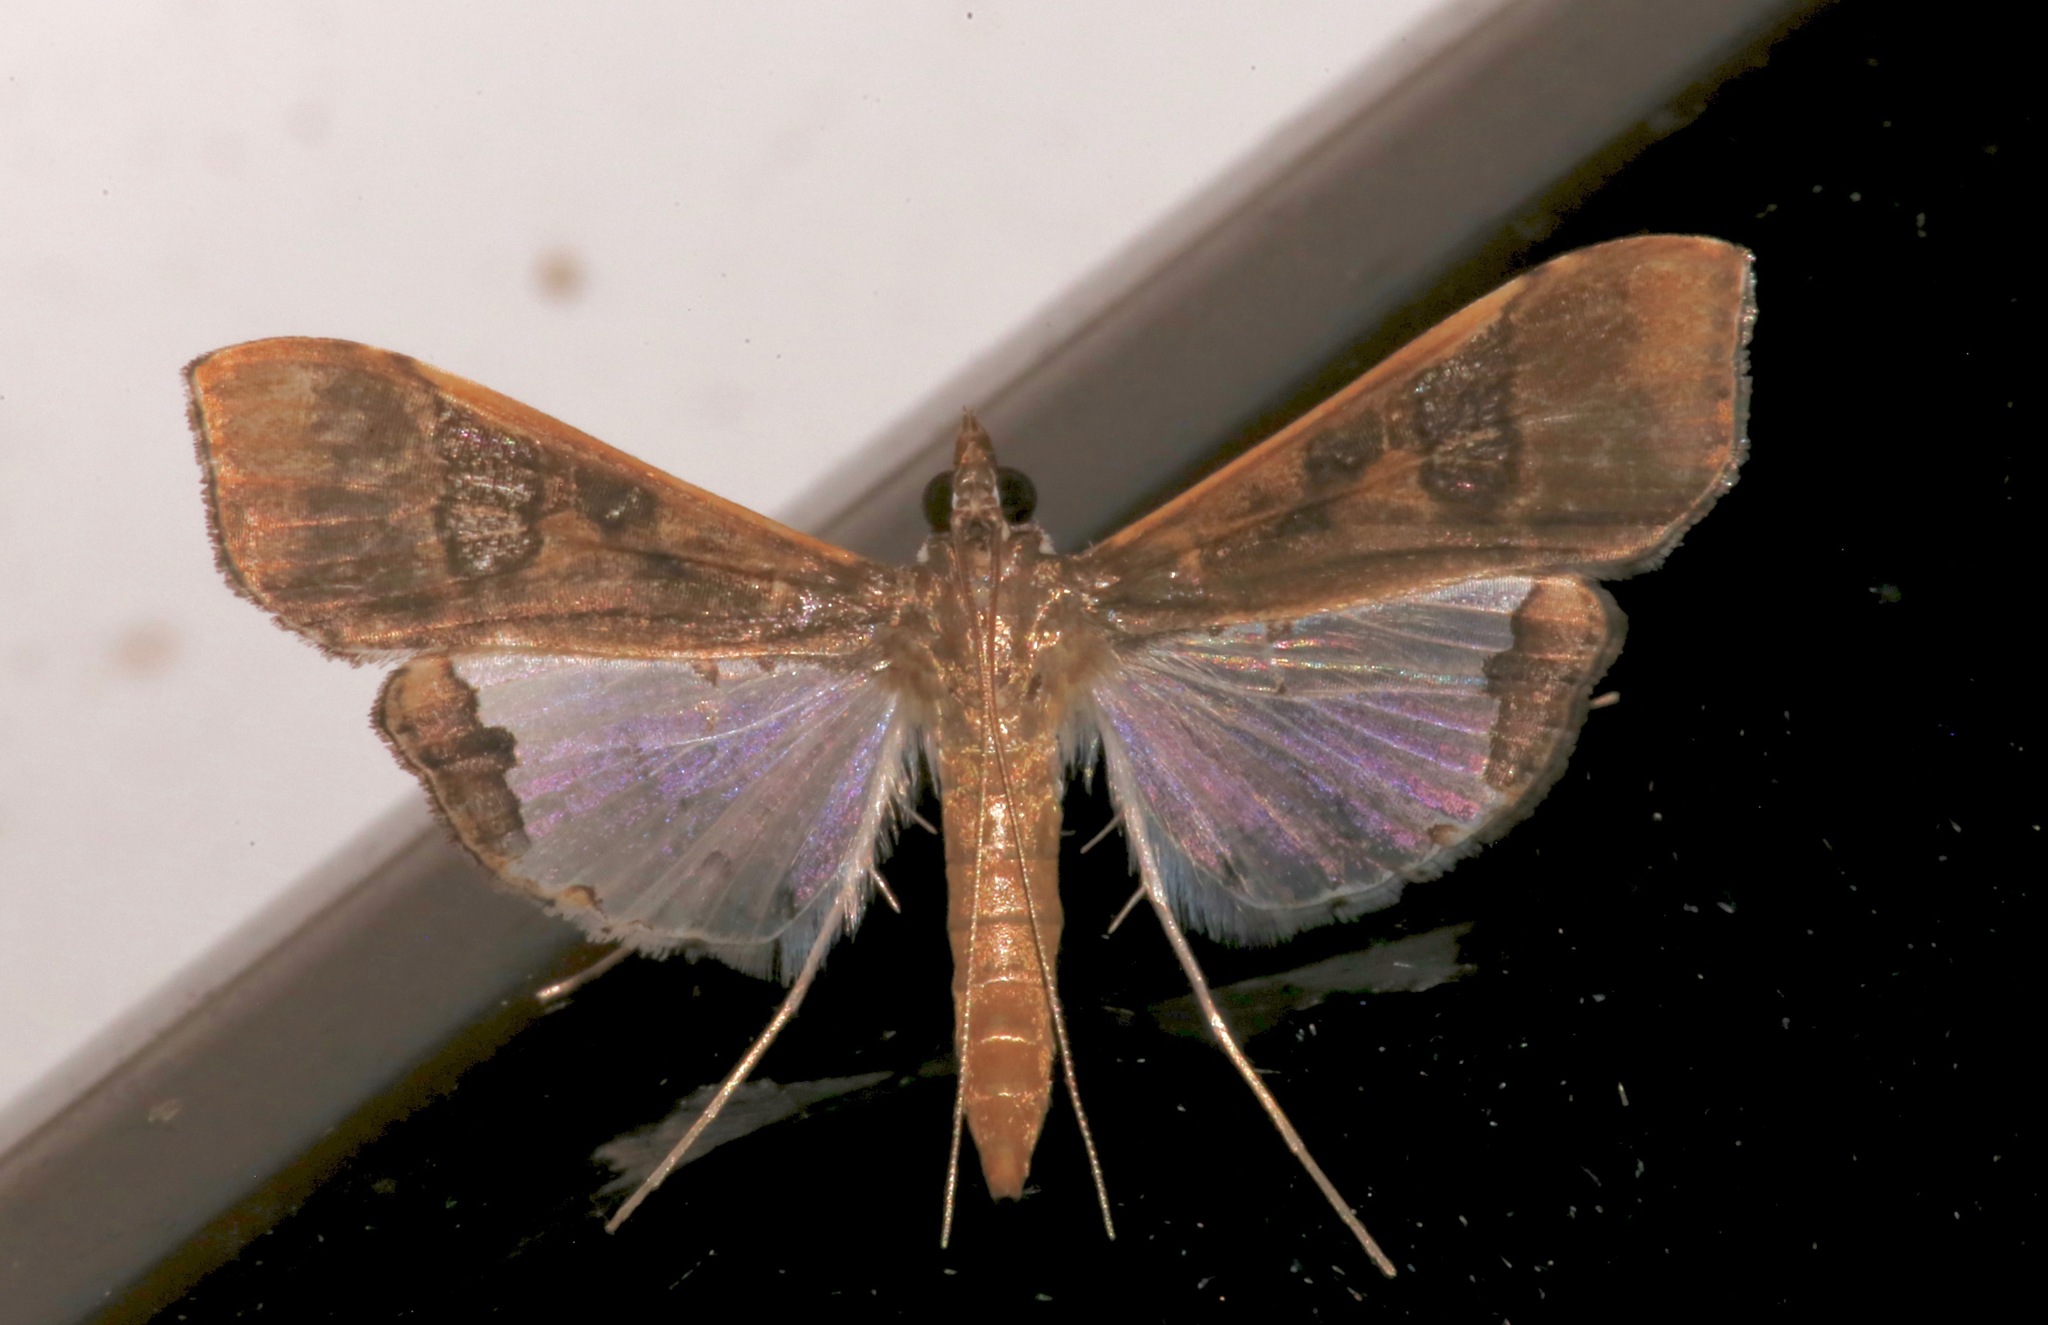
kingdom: Animalia
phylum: Arthropoda
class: Insecta
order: Lepidoptera
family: Crambidae
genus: Maruca
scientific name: Maruca vitrata
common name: Maruca pod borer
